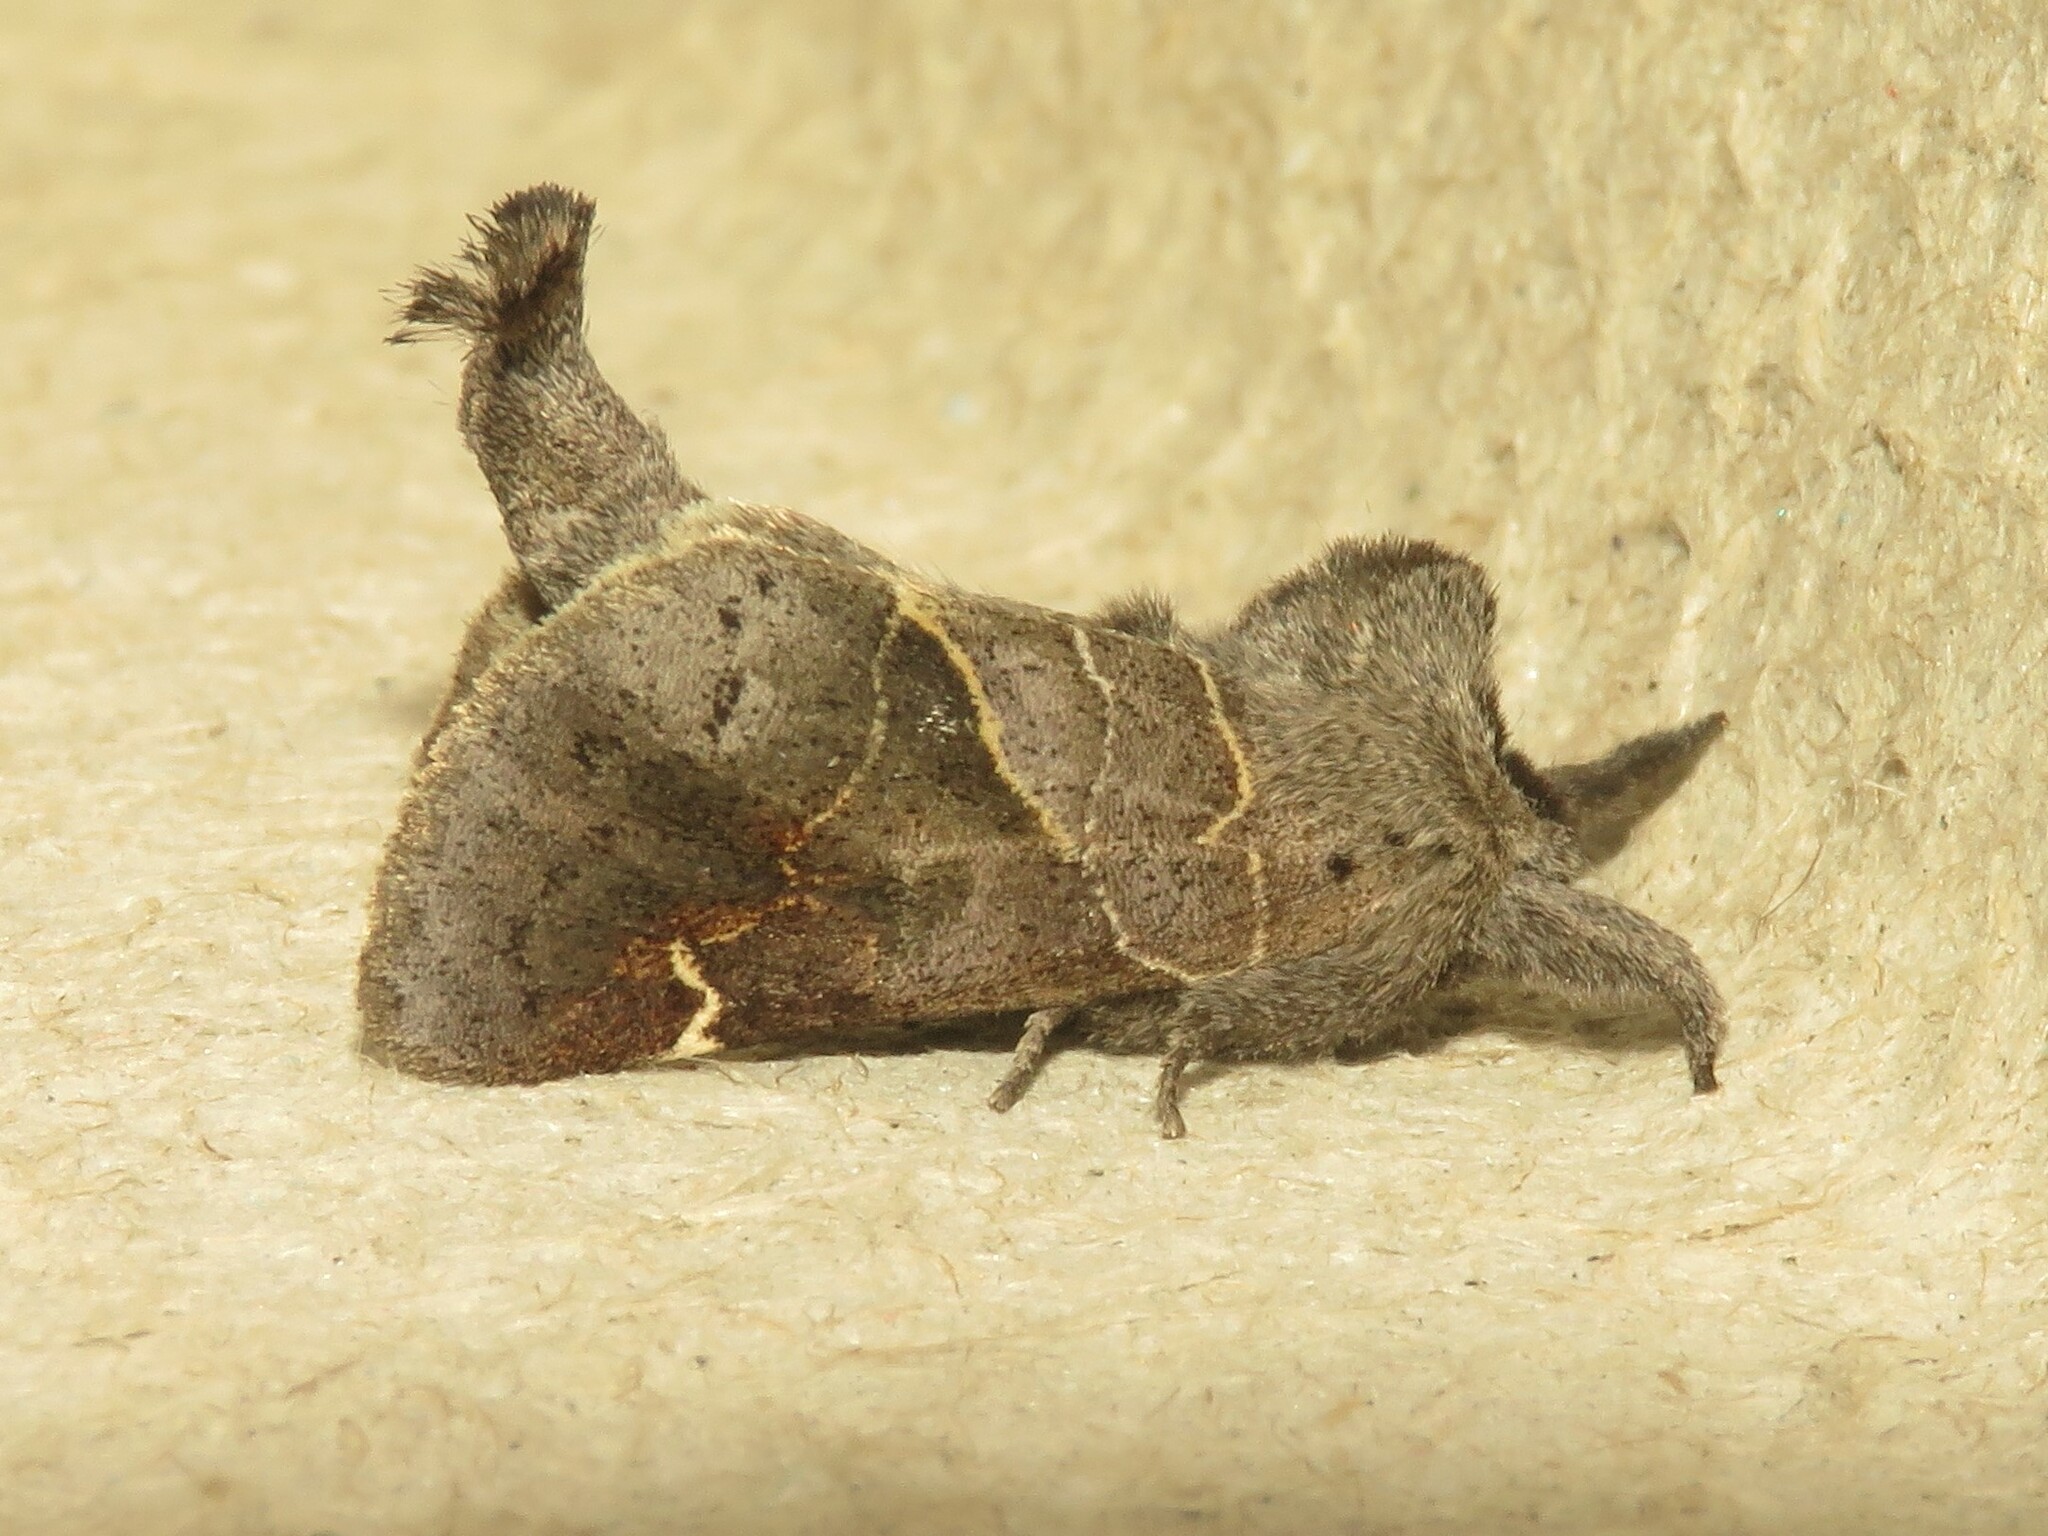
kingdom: Animalia
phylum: Arthropoda
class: Insecta
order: Lepidoptera
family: Notodontidae
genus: Clostera
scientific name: Clostera apicalis
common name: Apical prominent
